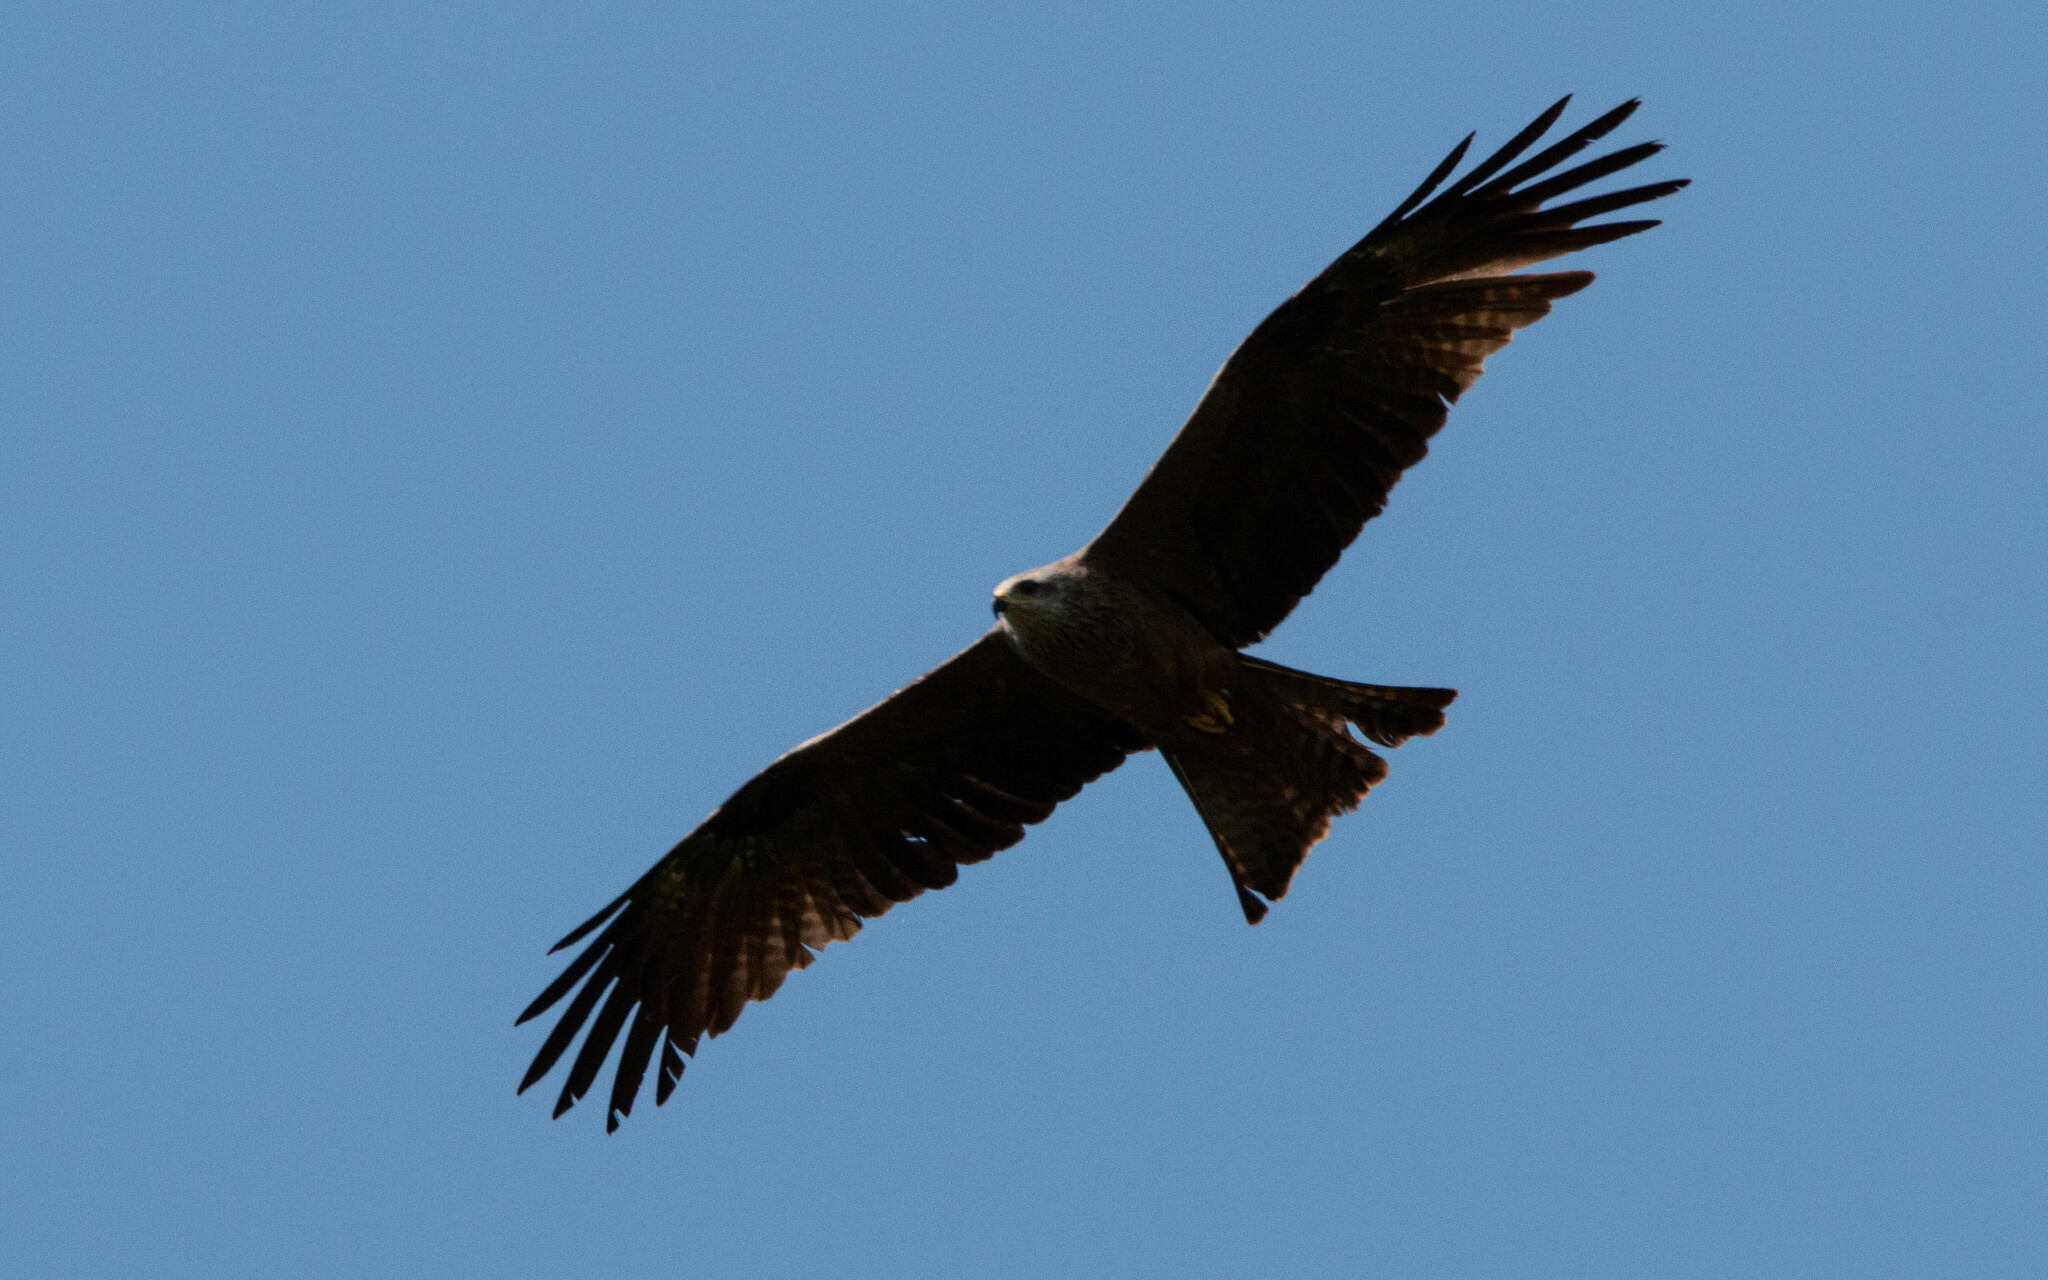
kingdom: Animalia
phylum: Chordata
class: Aves
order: Accipitriformes
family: Accipitridae
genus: Milvus
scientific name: Milvus migrans
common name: Black kite
